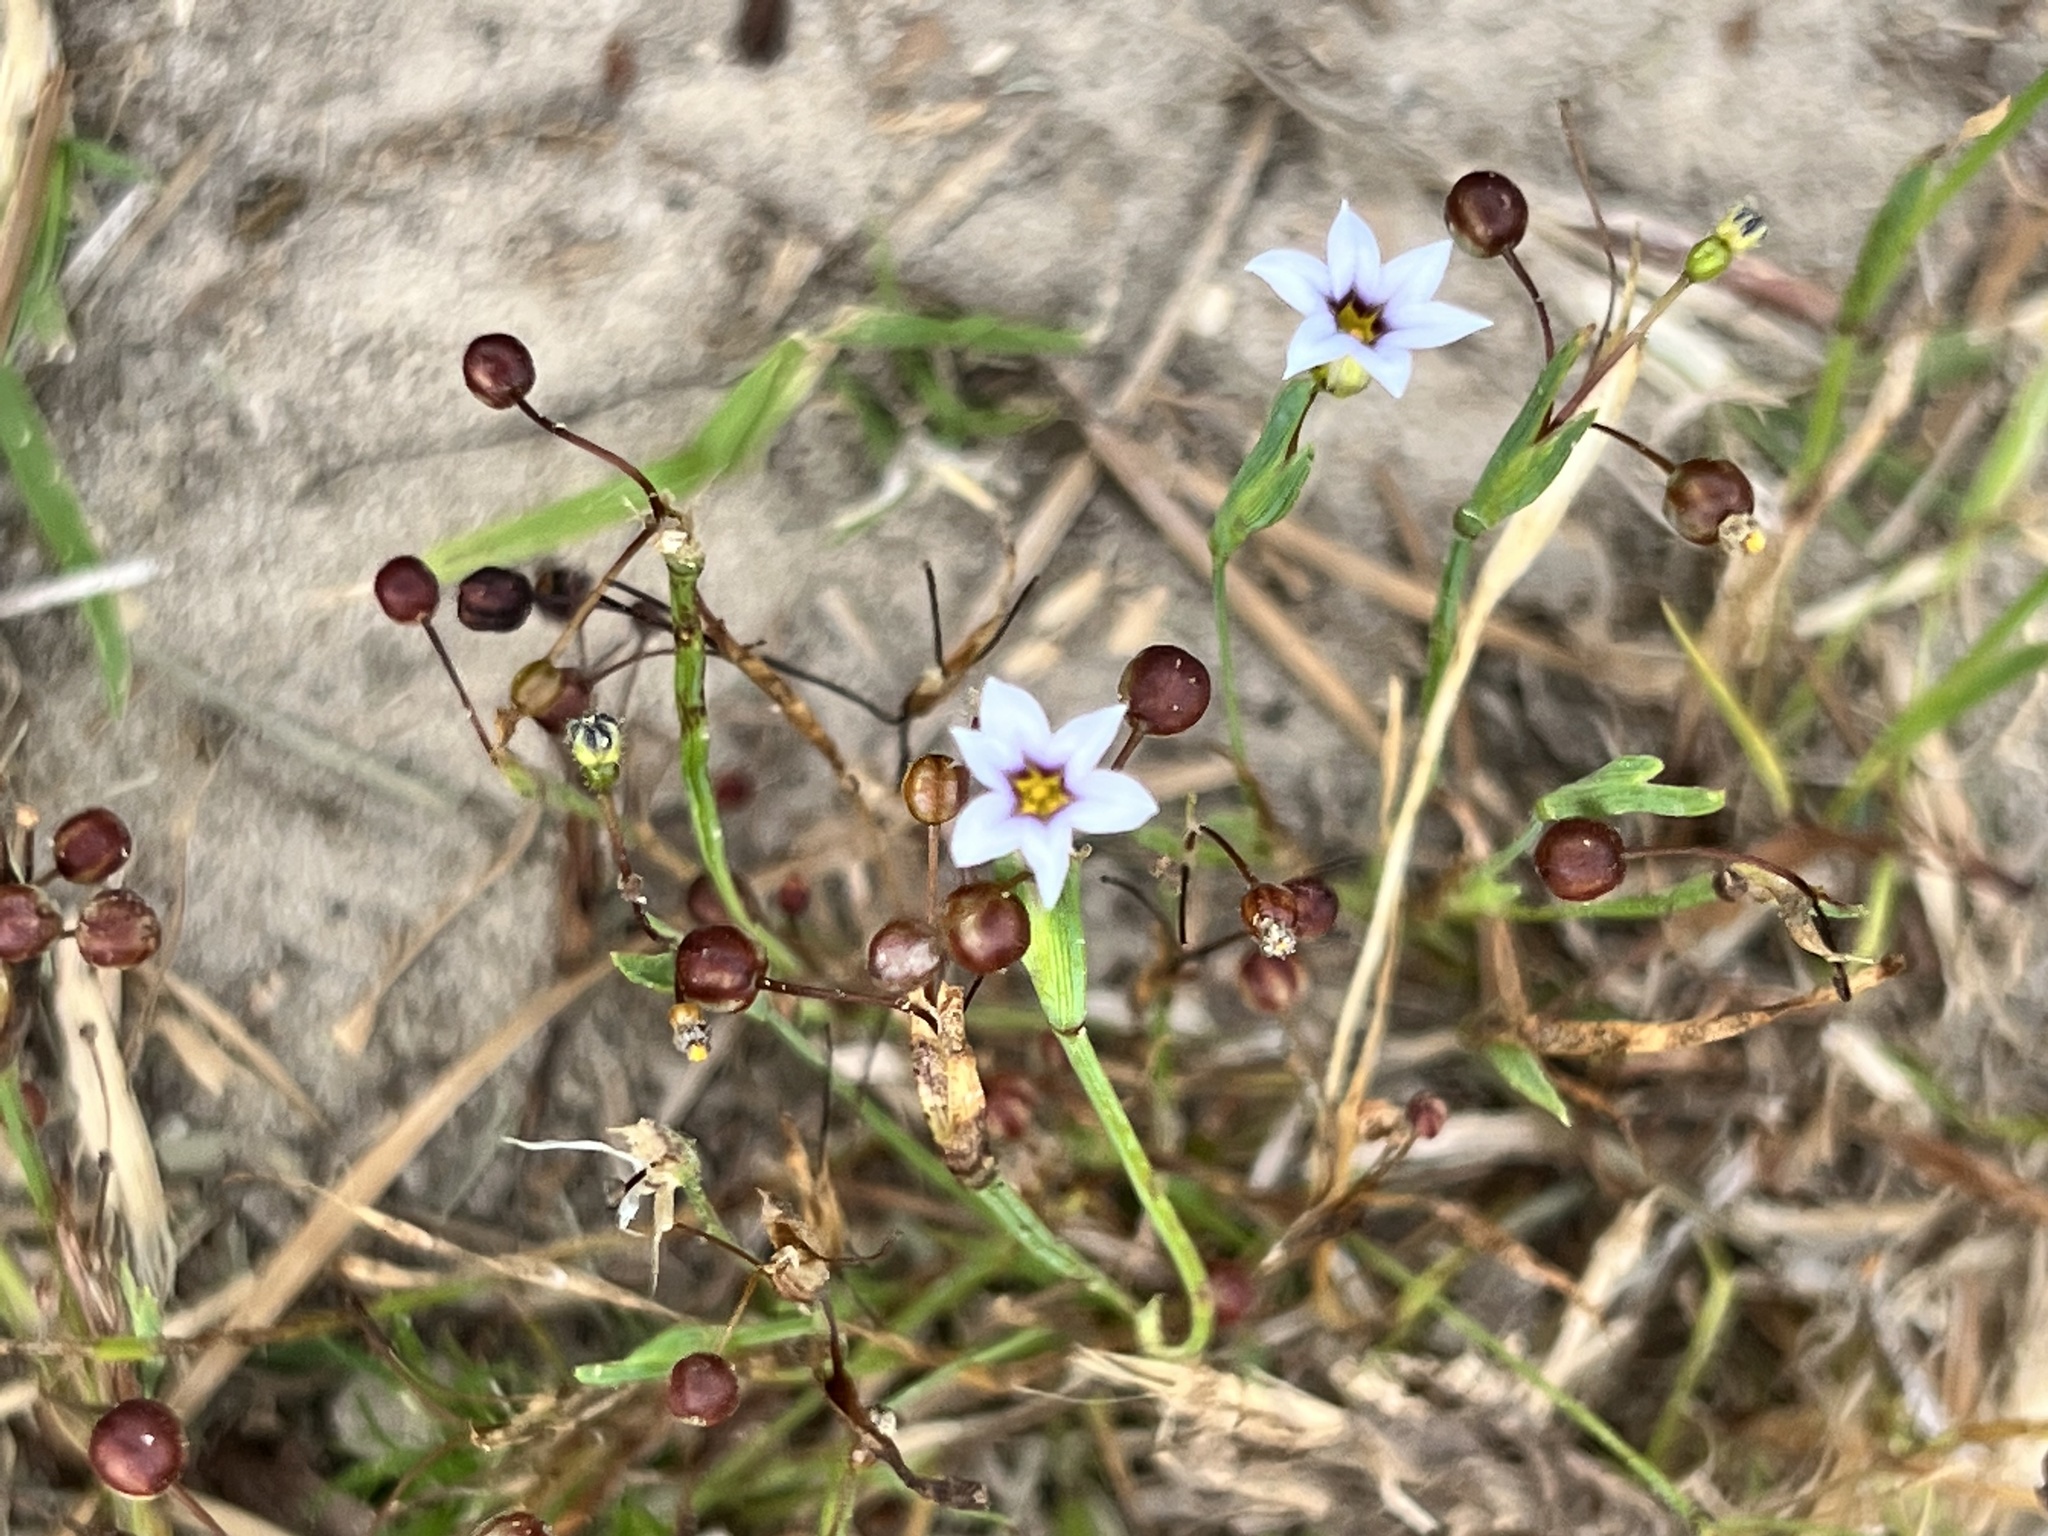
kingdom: Plantae
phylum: Tracheophyta
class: Liliopsida
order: Asparagales
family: Iridaceae
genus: Sisyrinchium
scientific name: Sisyrinchium micranthum
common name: Bermuda pigroot
